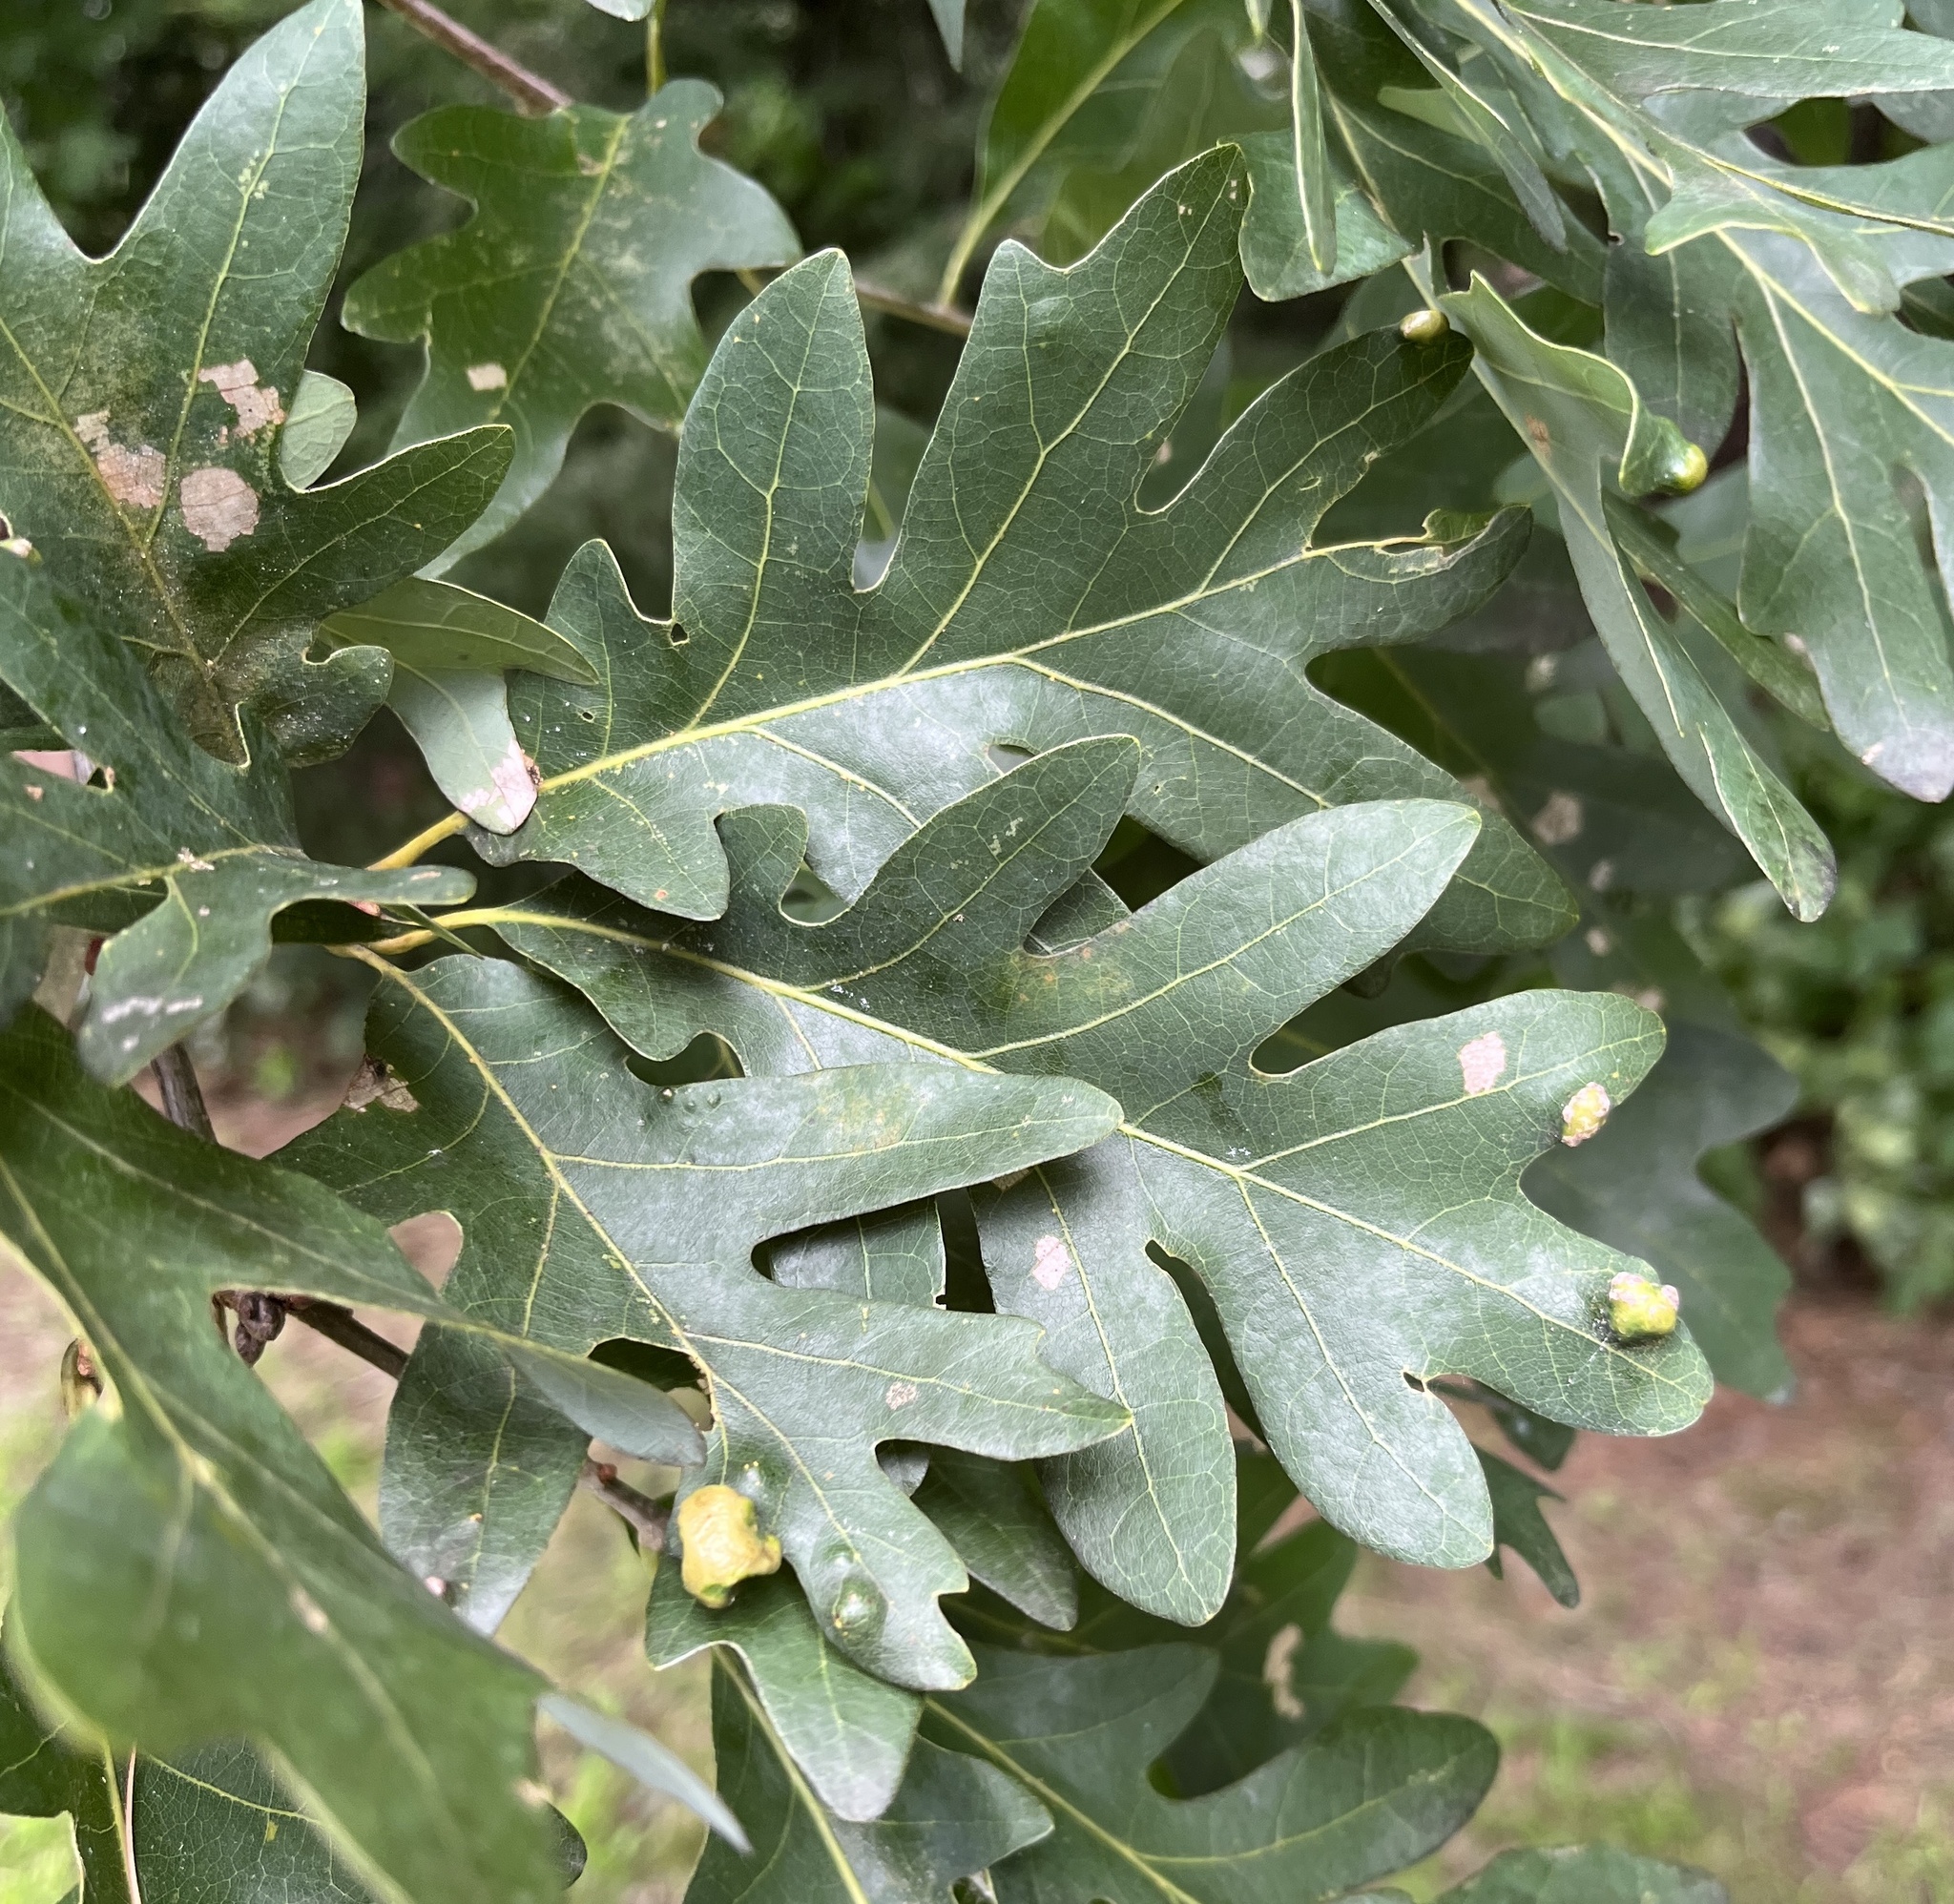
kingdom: Plantae
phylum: Tracheophyta
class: Magnoliopsida
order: Fagales
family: Fagaceae
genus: Quercus
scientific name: Quercus alba
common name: White oak
